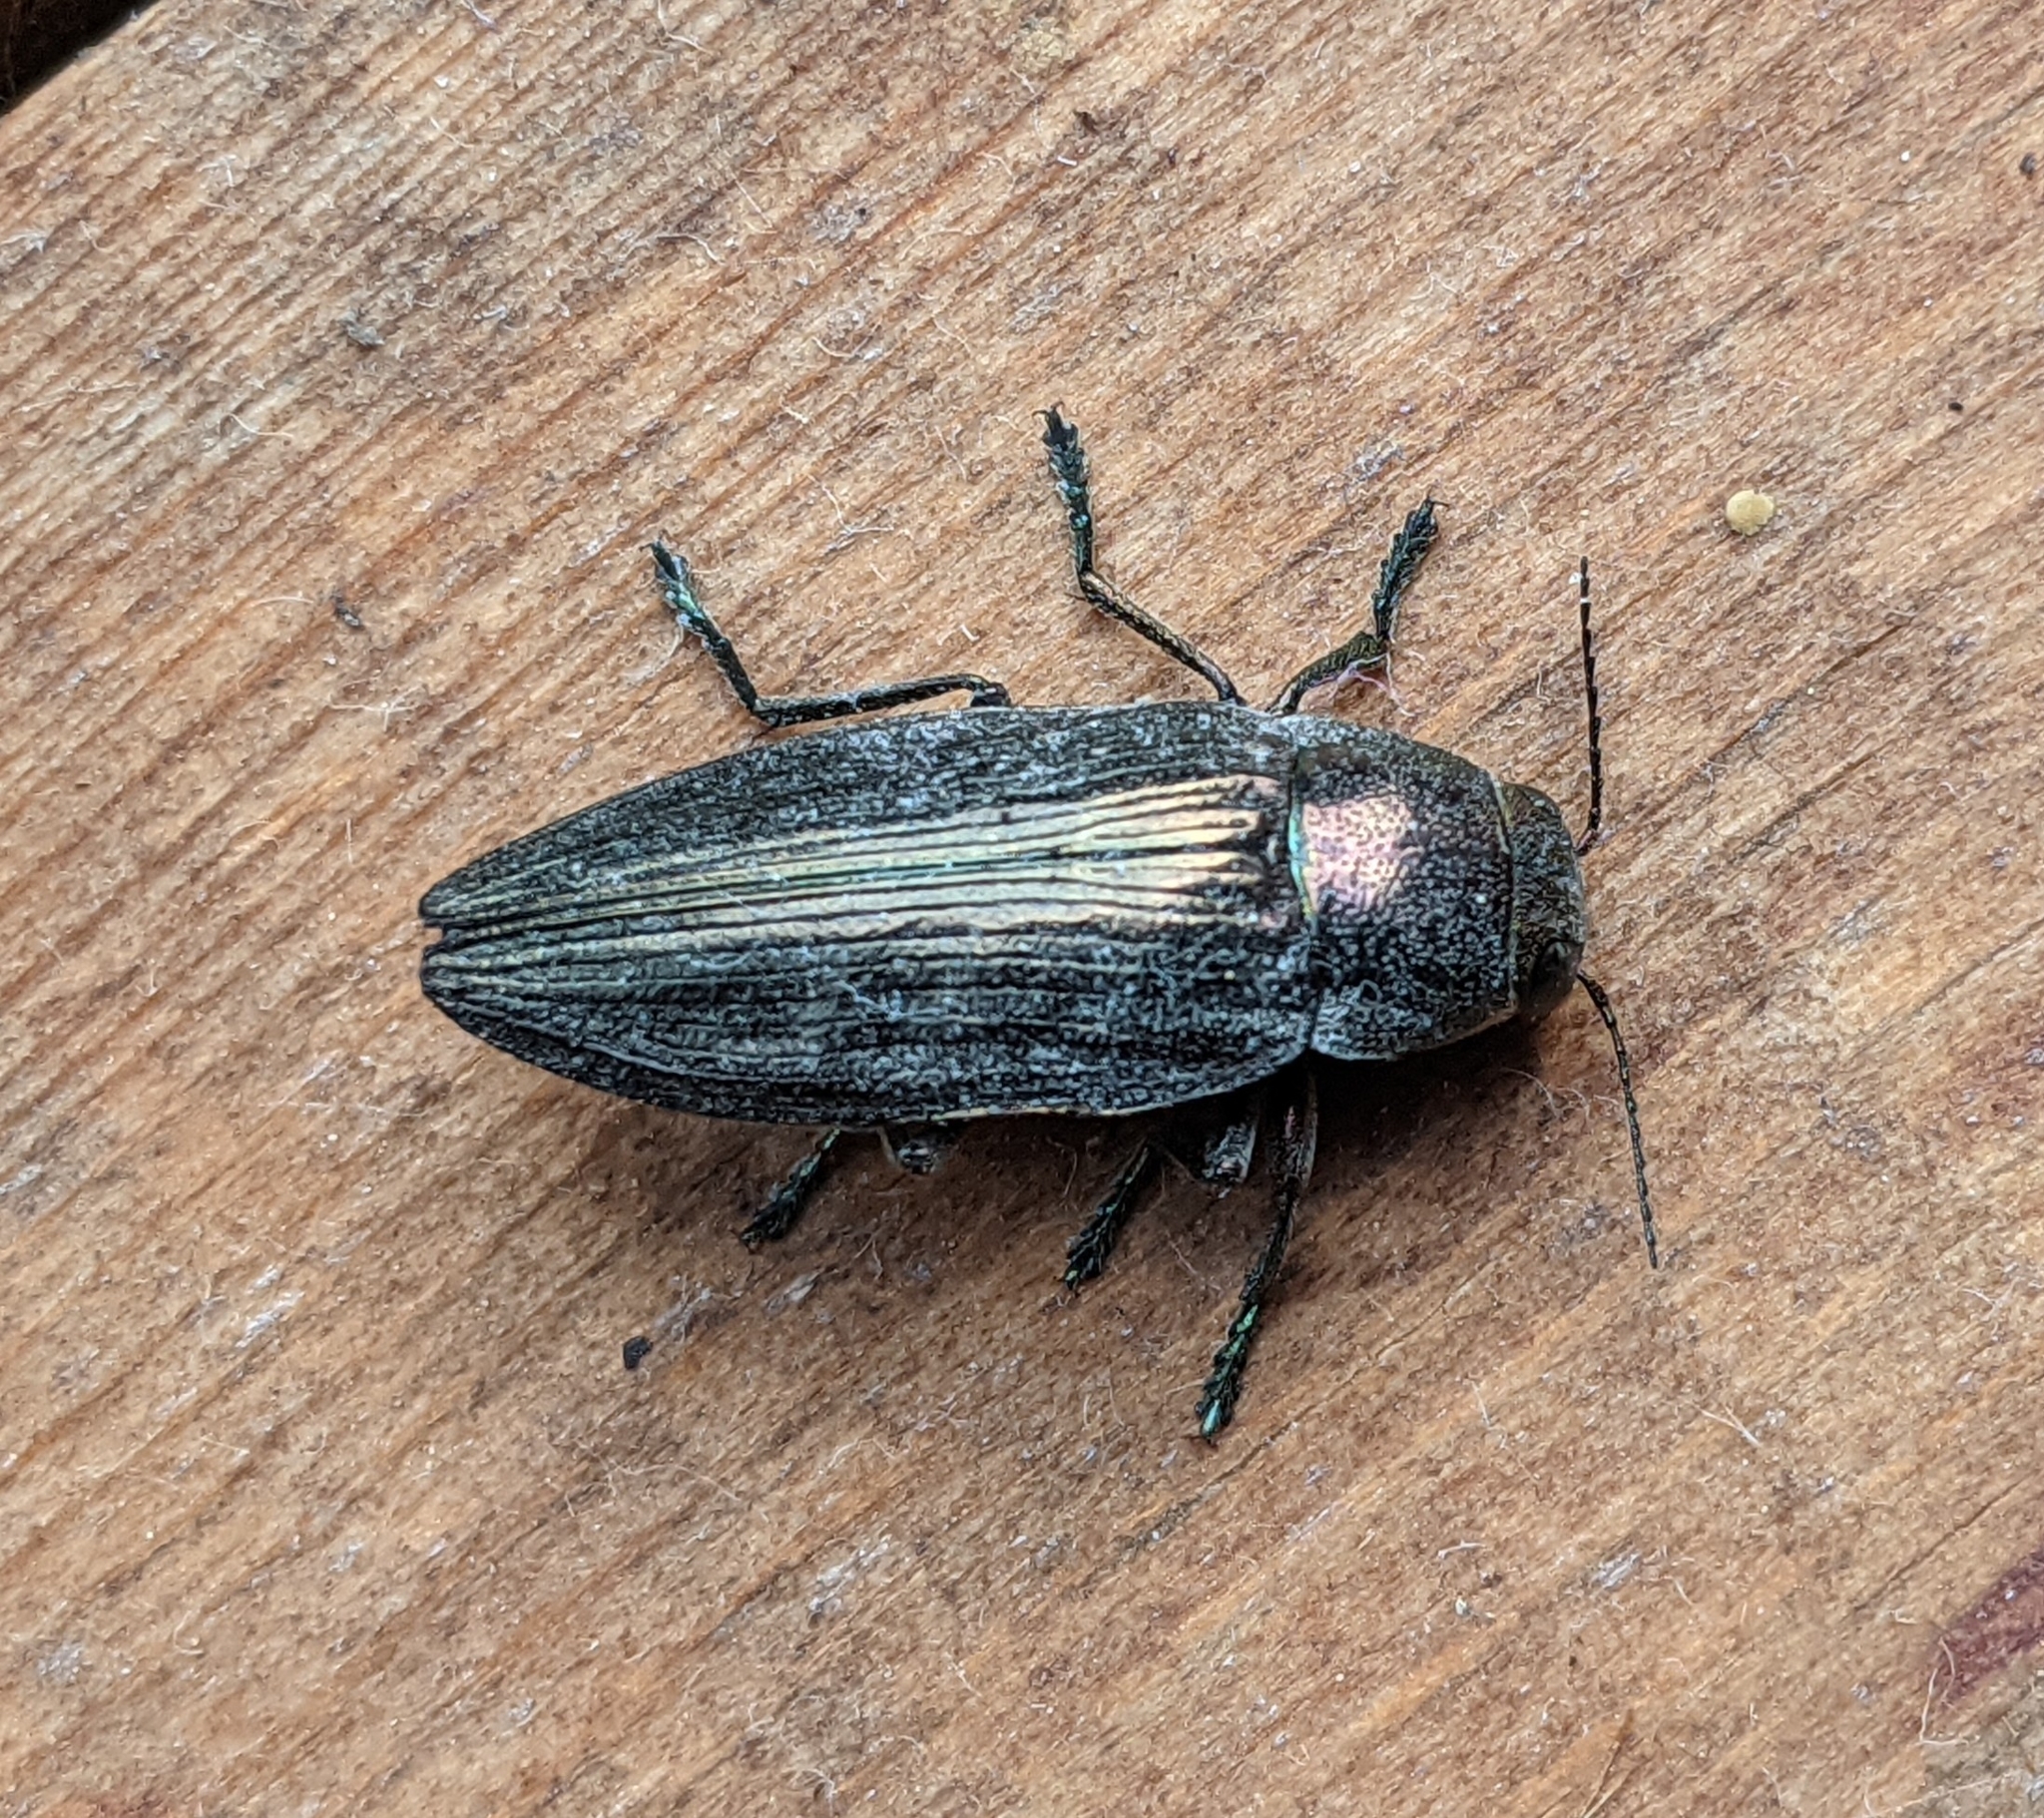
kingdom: Animalia
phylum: Arthropoda
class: Insecta
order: Coleoptera
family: Buprestidae
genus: Buprestis
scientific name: Buprestis haemorrhoidalis
